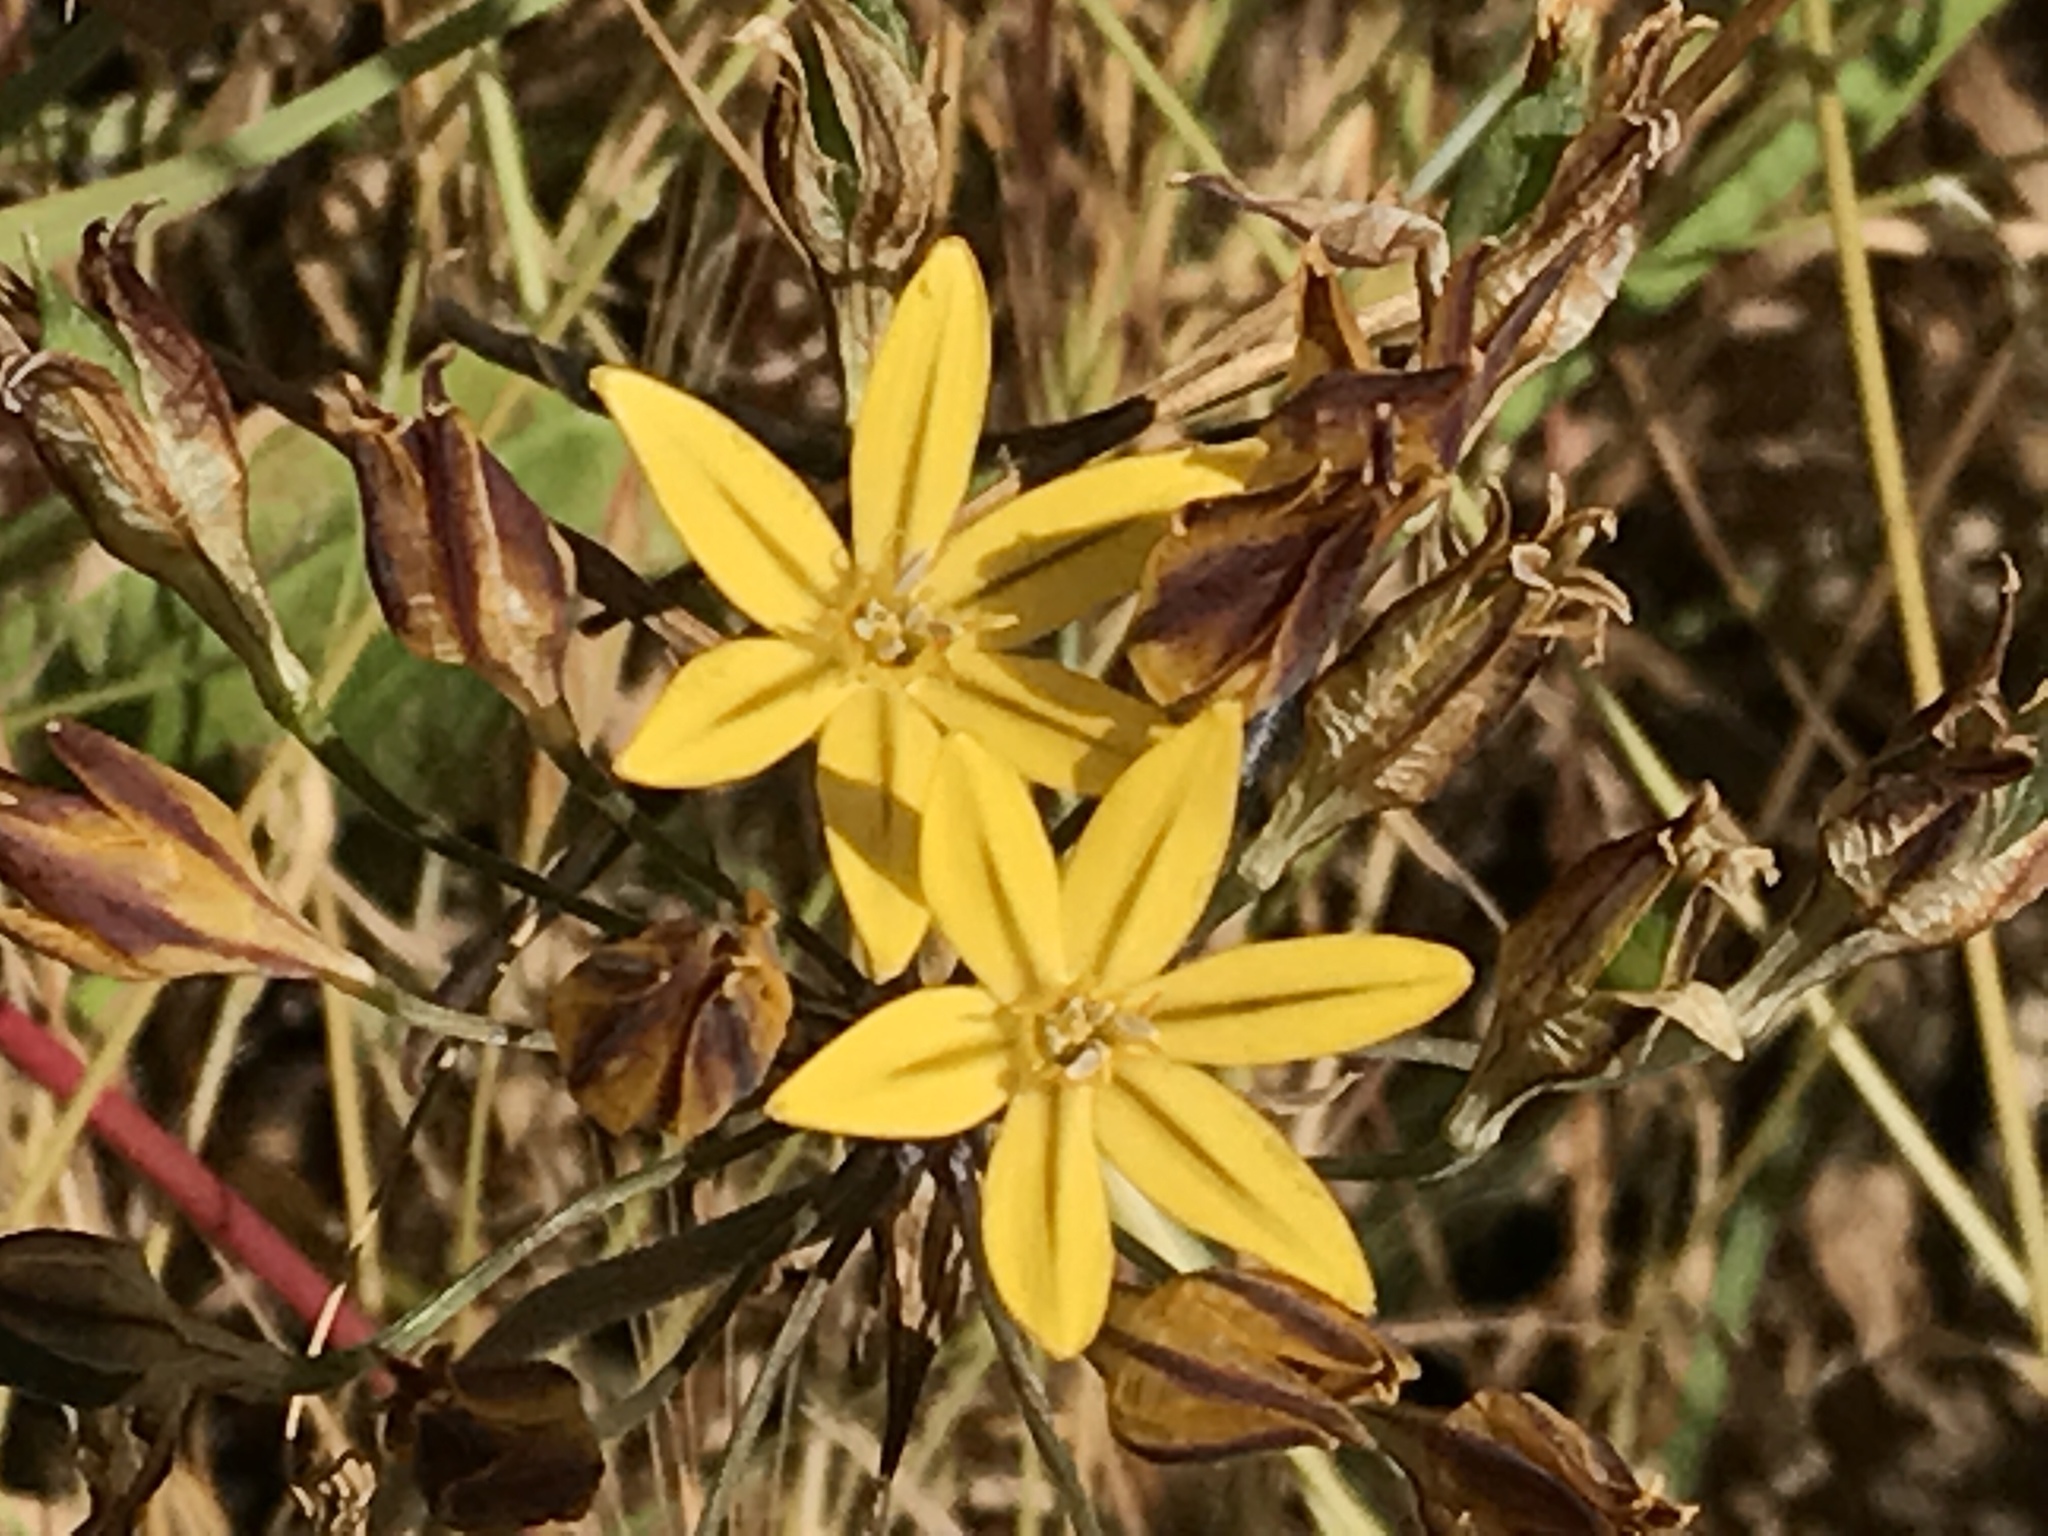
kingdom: Plantae
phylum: Tracheophyta
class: Liliopsida
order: Asparagales
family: Asparagaceae
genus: Triteleia
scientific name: Triteleia ixioides
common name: Yellow-brodiaea
